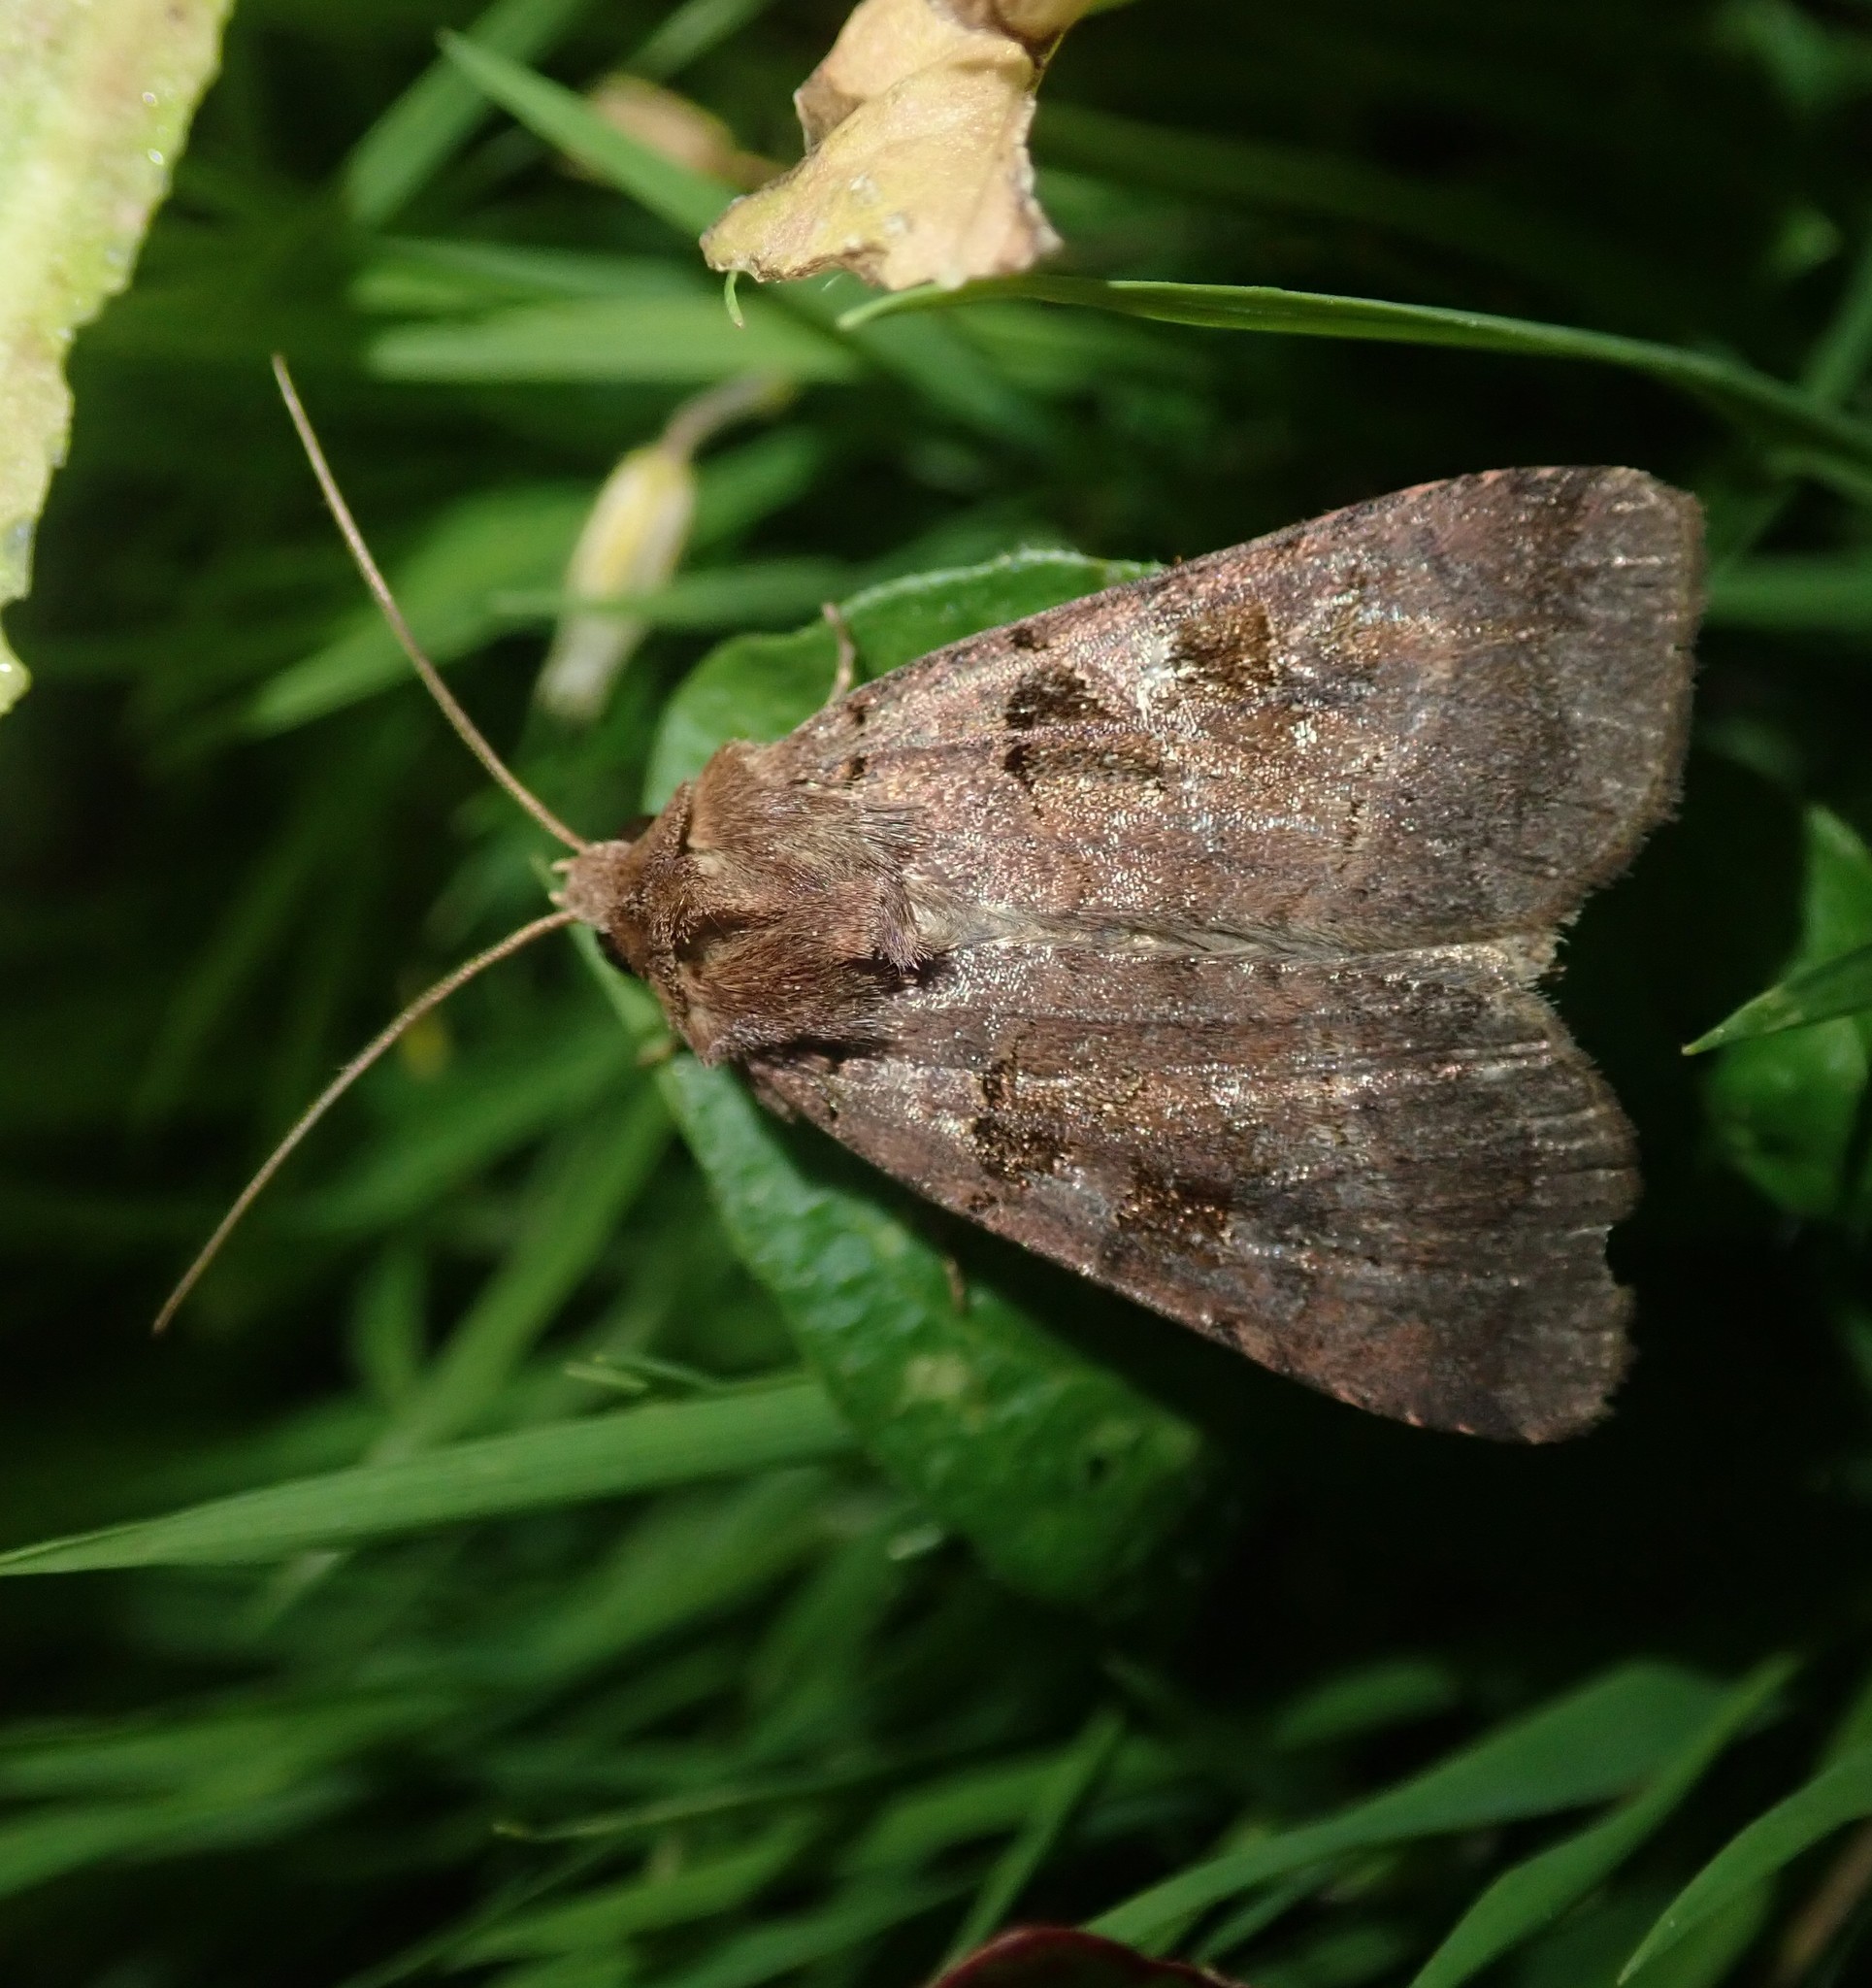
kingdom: Animalia
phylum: Arthropoda
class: Insecta
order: Lepidoptera
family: Noctuidae
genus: Xestia
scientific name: Xestia stigmatica
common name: Square-spotted clay
